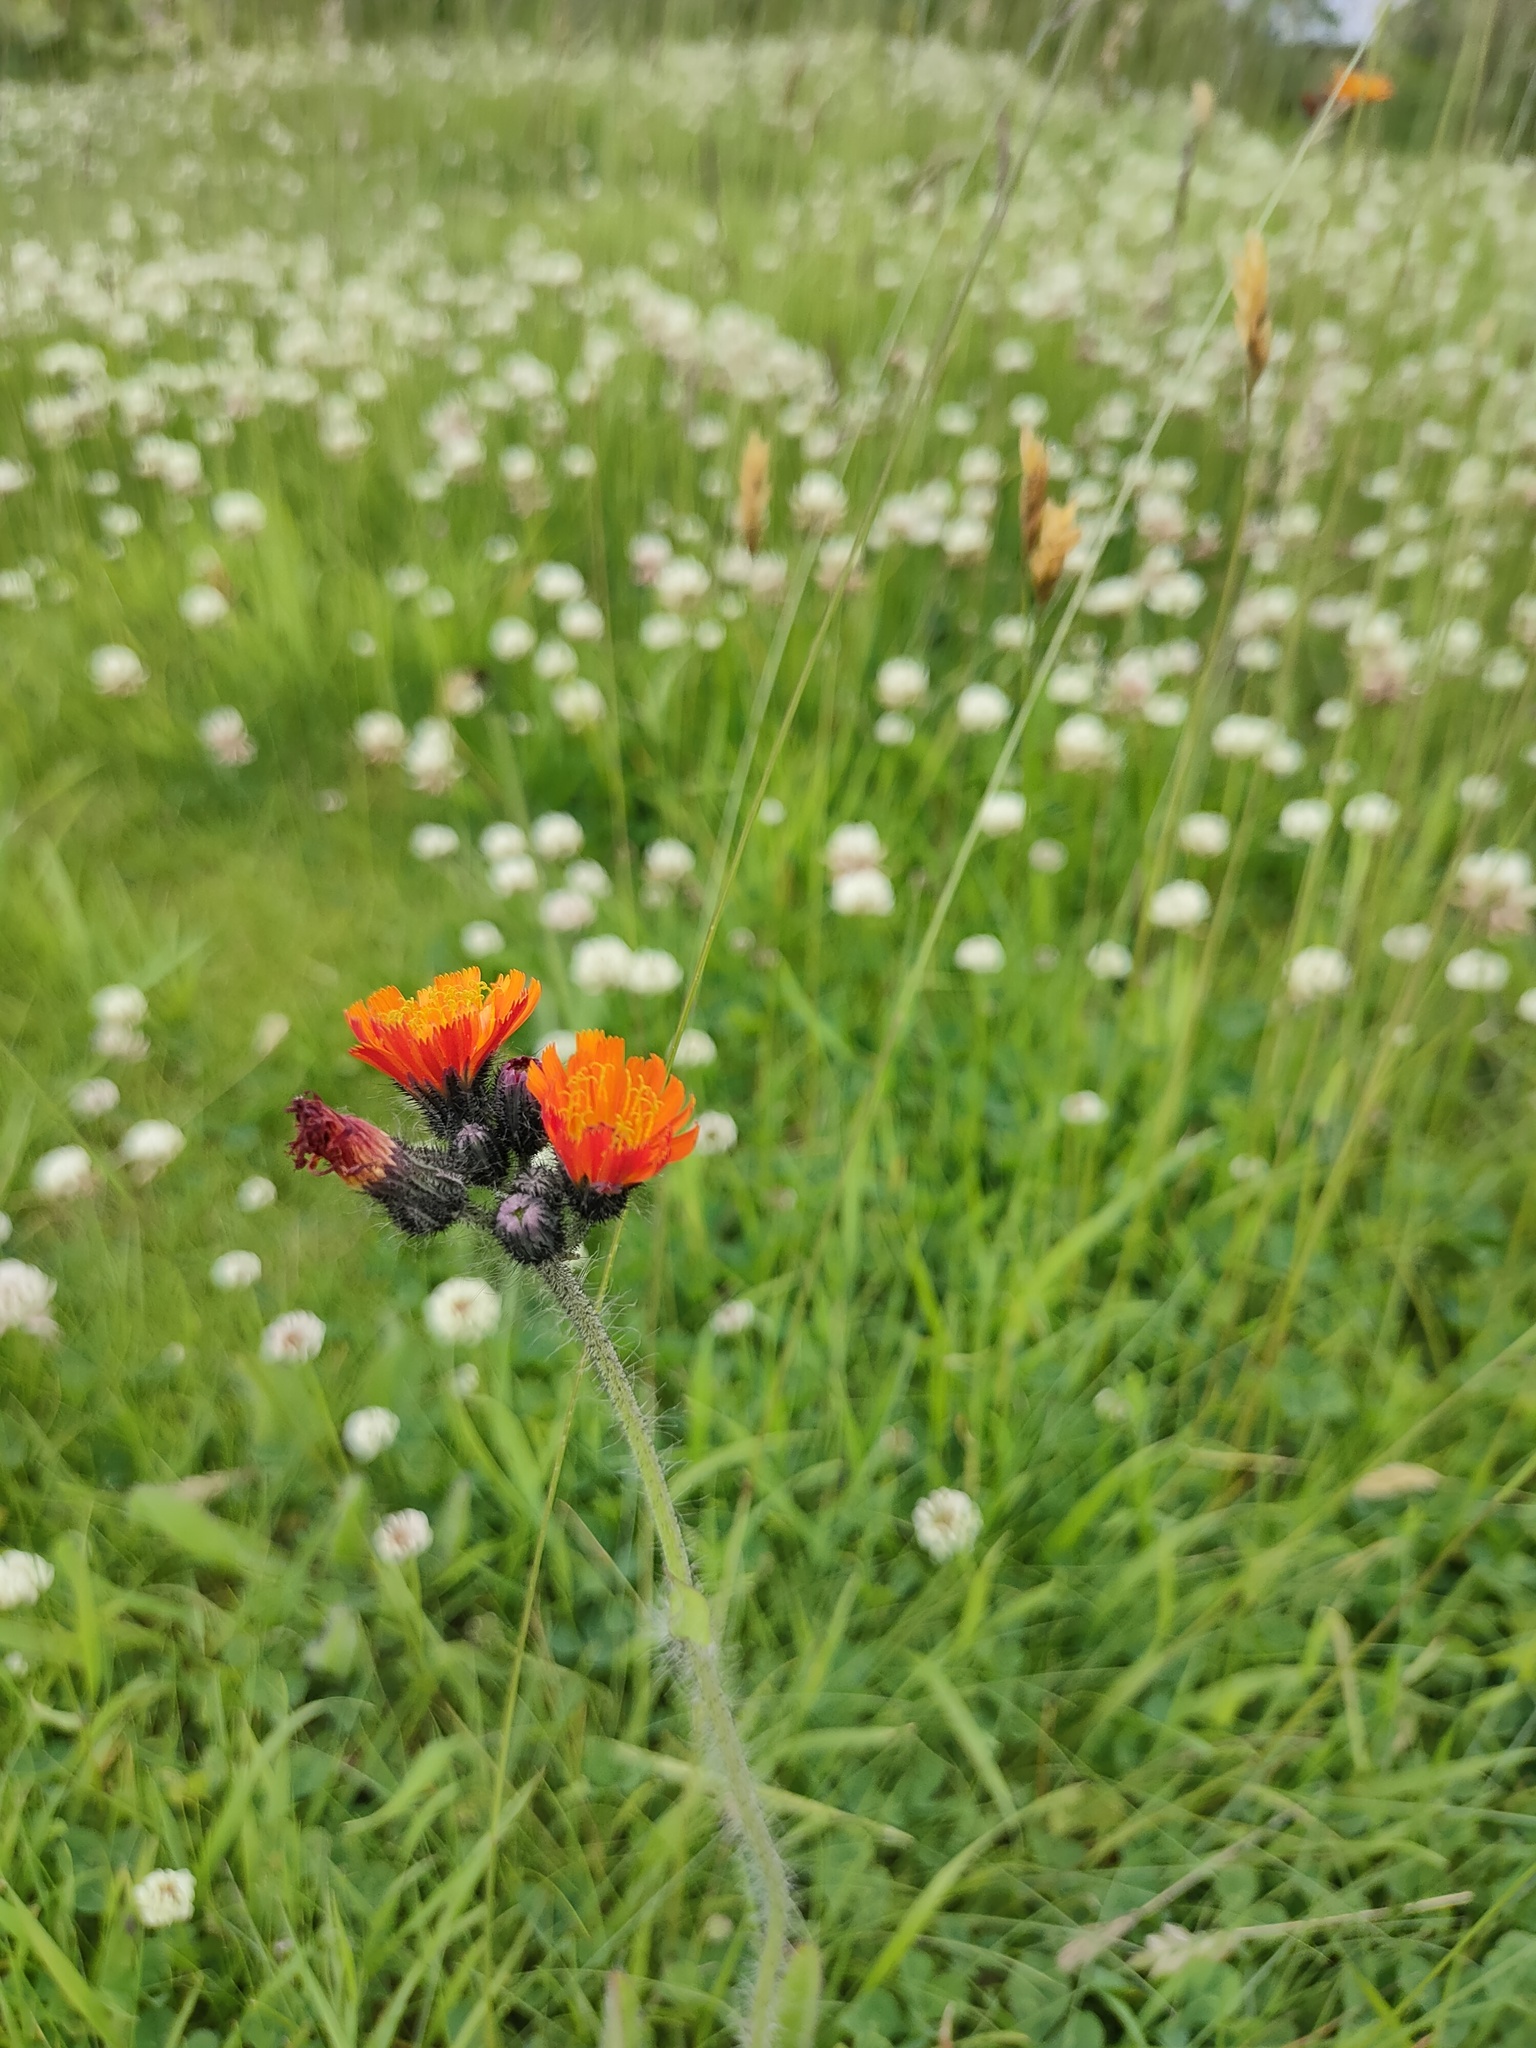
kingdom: Plantae
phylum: Tracheophyta
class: Magnoliopsida
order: Asterales
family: Asteraceae
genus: Pilosella
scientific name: Pilosella aurantiaca
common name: Fox-and-cubs
